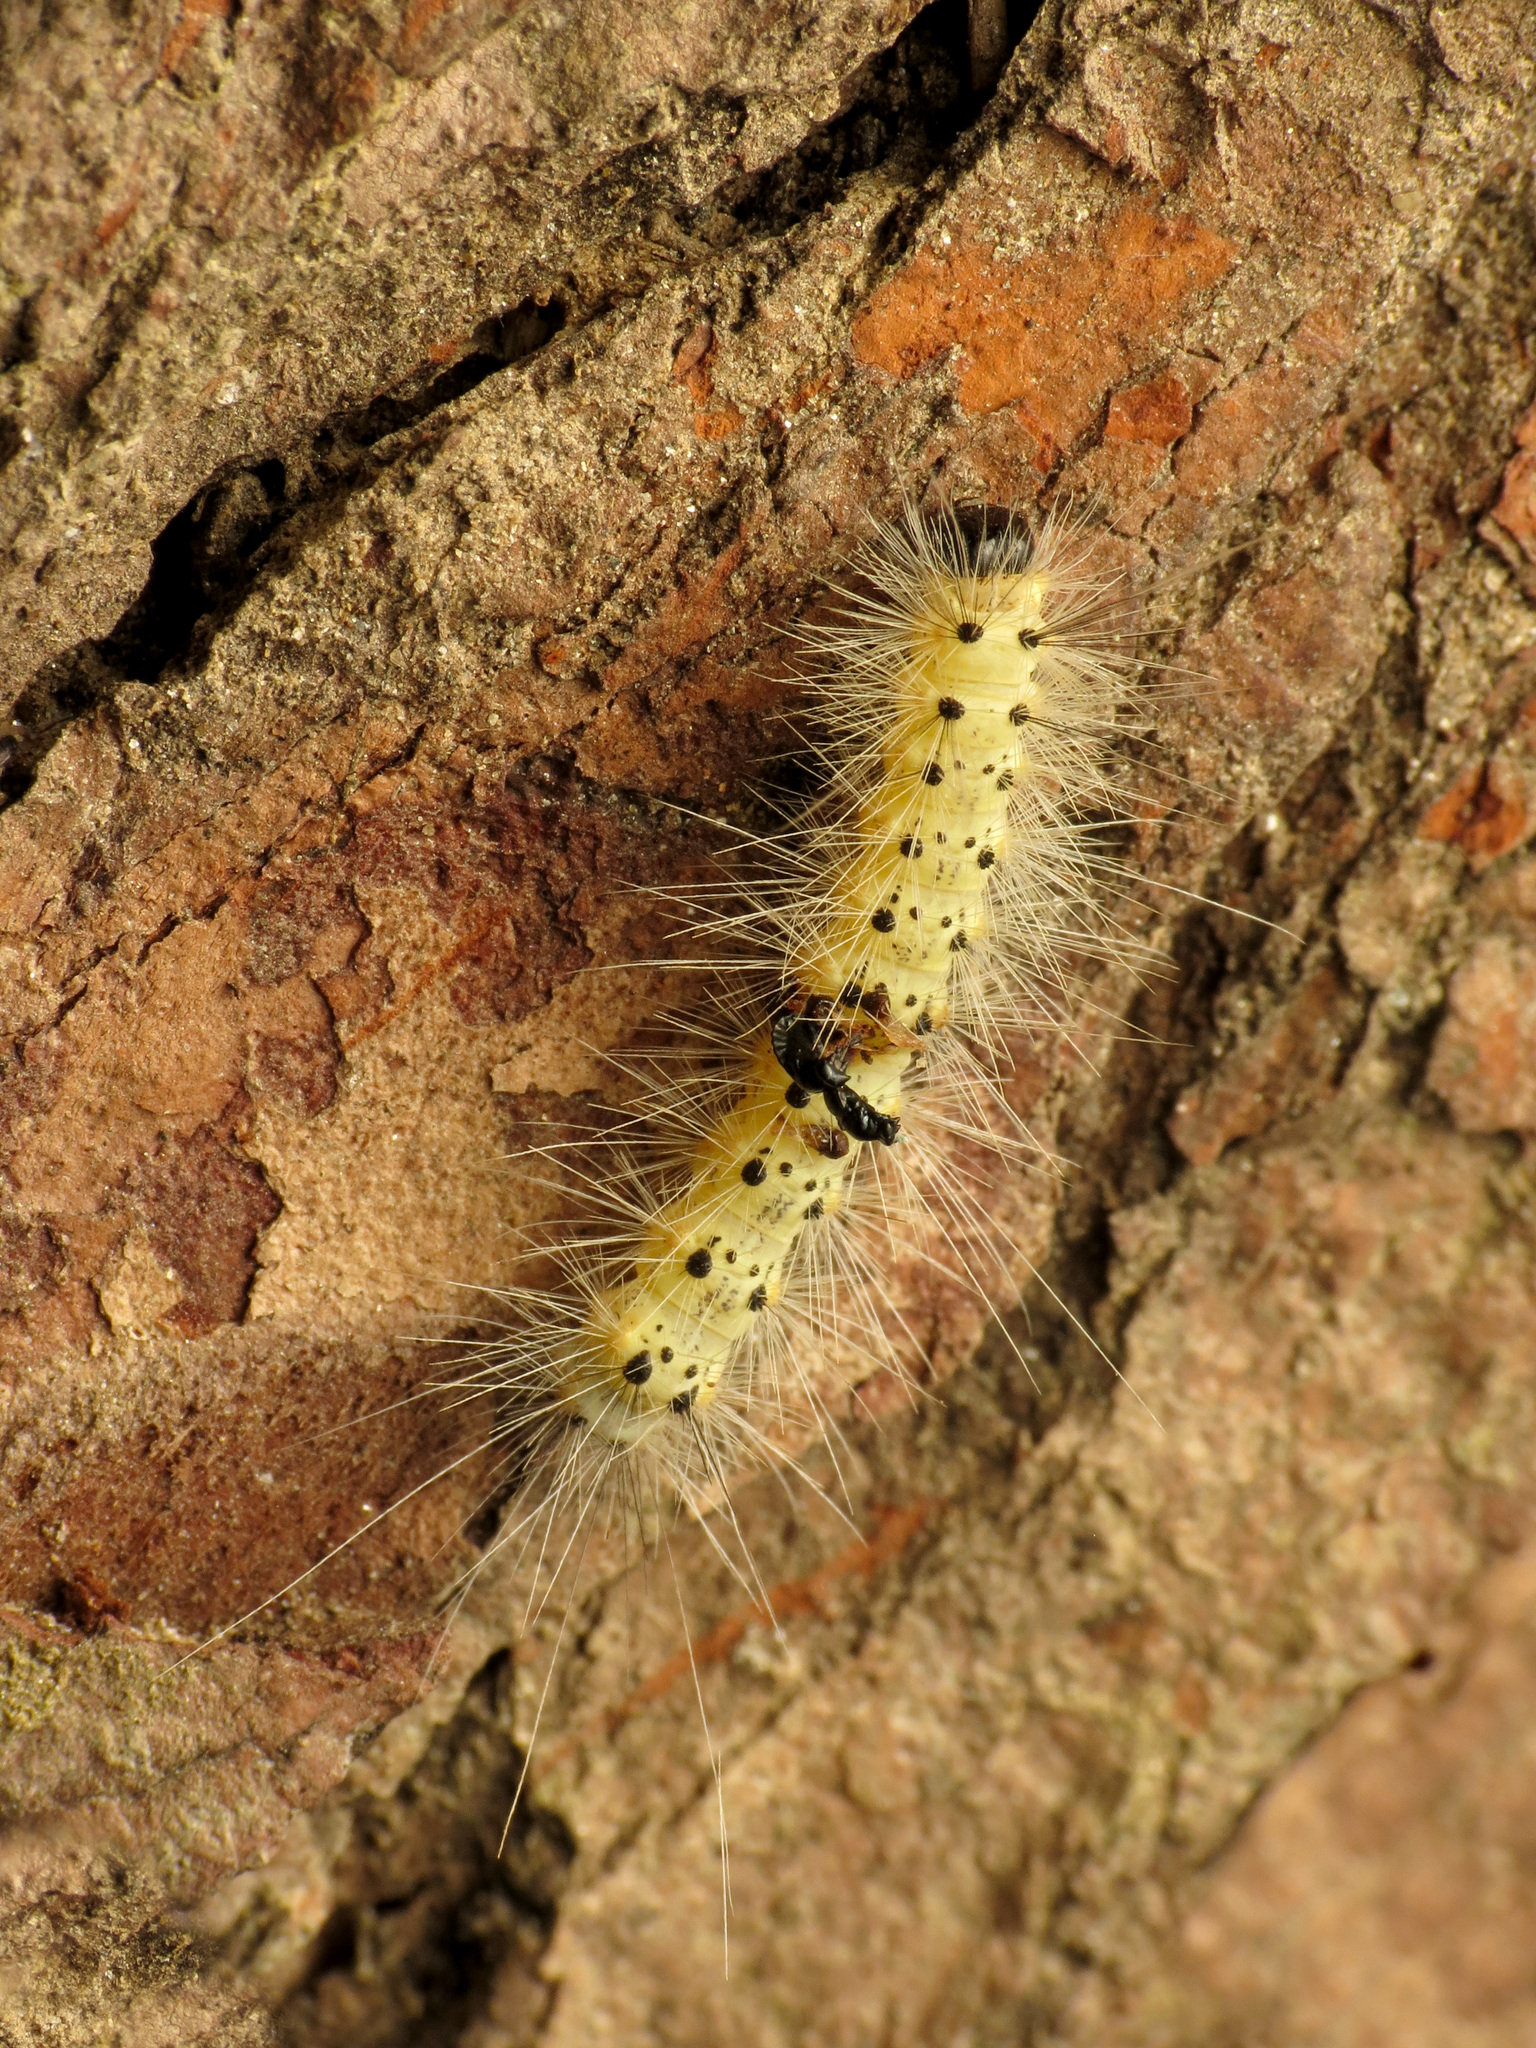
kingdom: Animalia
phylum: Arthropoda
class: Insecta
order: Lepidoptera
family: Erebidae
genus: Hyphantria
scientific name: Hyphantria cunea
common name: American white moth
